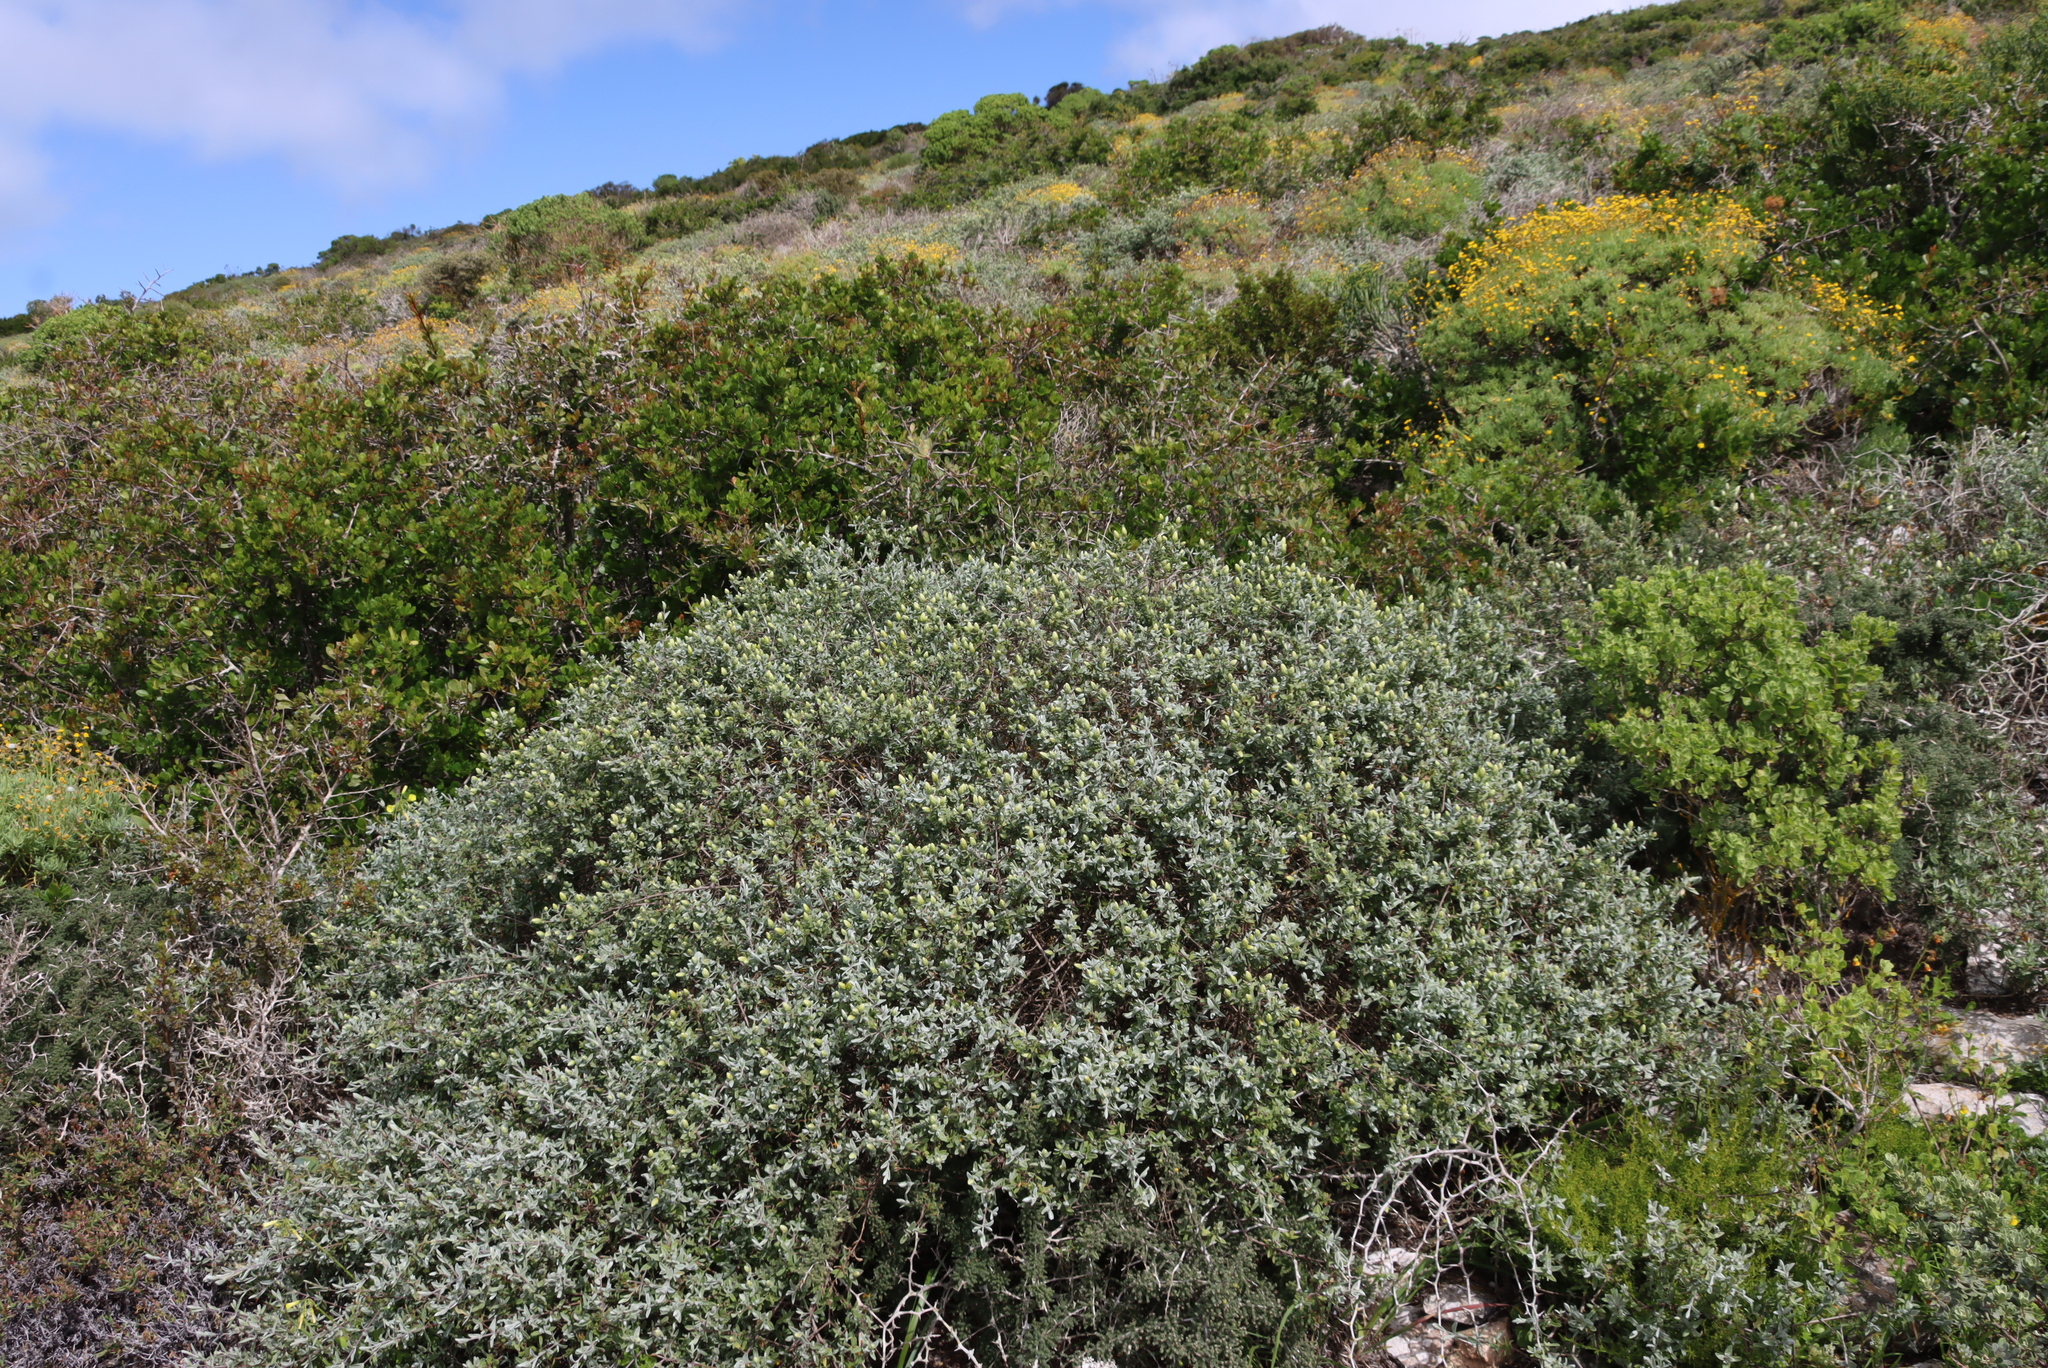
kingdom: Plantae
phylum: Tracheophyta
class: Magnoliopsida
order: Asterales
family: Asteraceae
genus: Pteronia
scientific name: Pteronia ovalifolia
